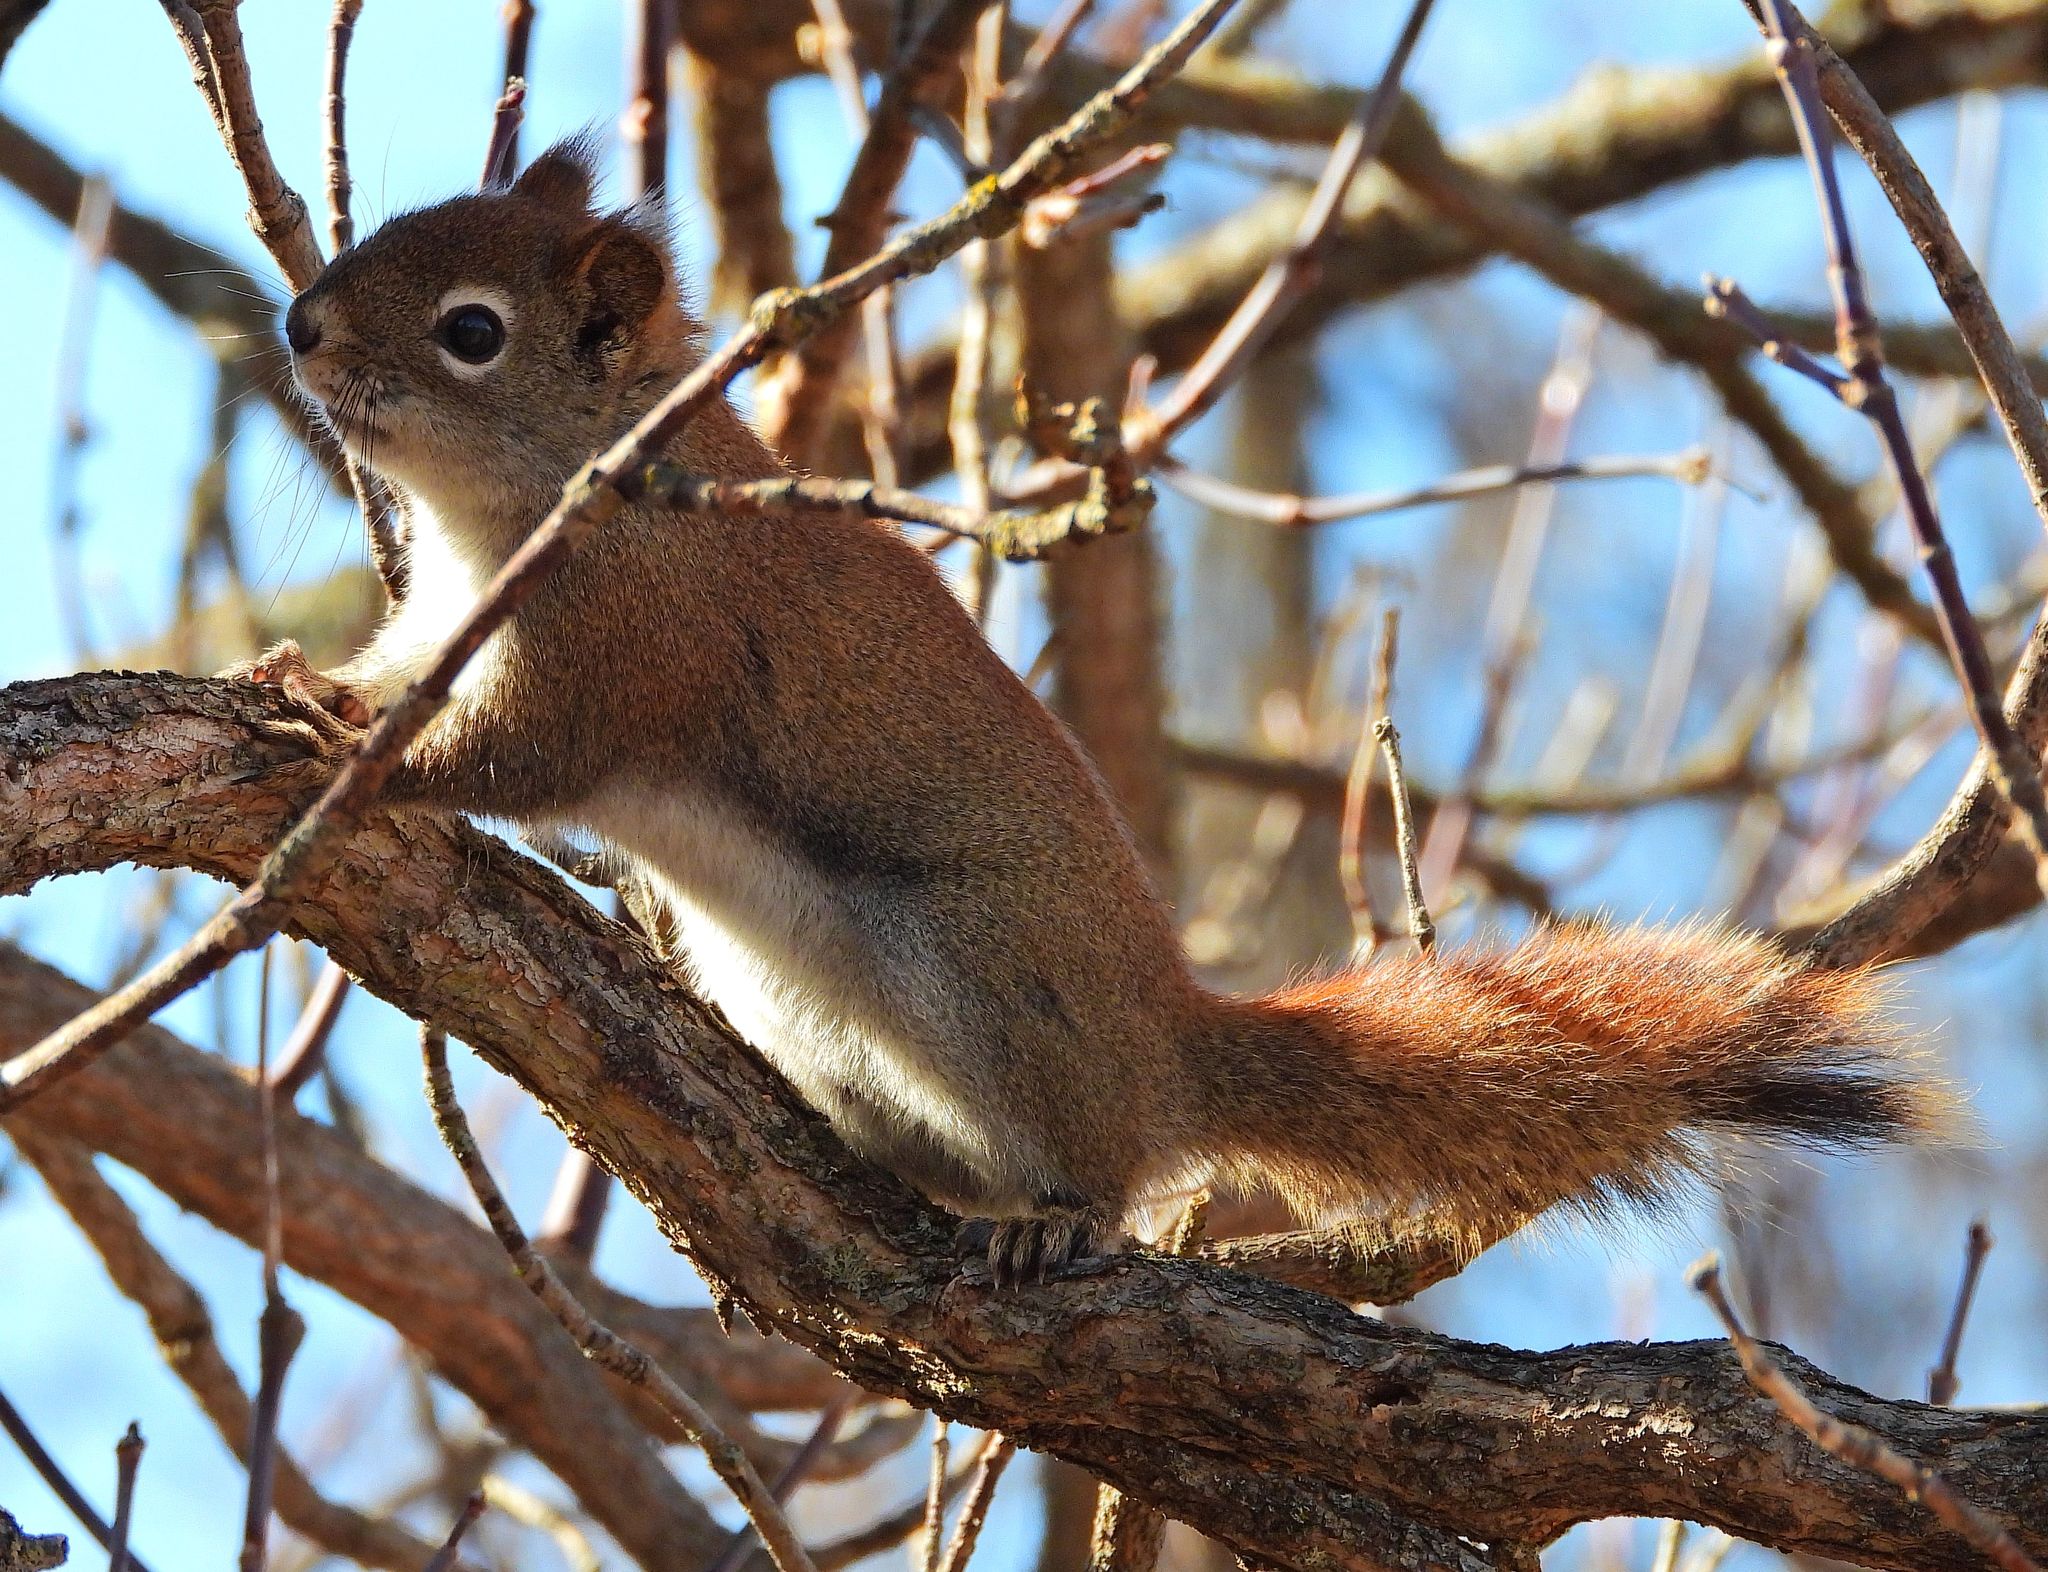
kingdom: Animalia
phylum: Chordata
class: Mammalia
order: Rodentia
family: Sciuridae
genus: Tamiasciurus
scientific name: Tamiasciurus hudsonicus
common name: Red squirrel
